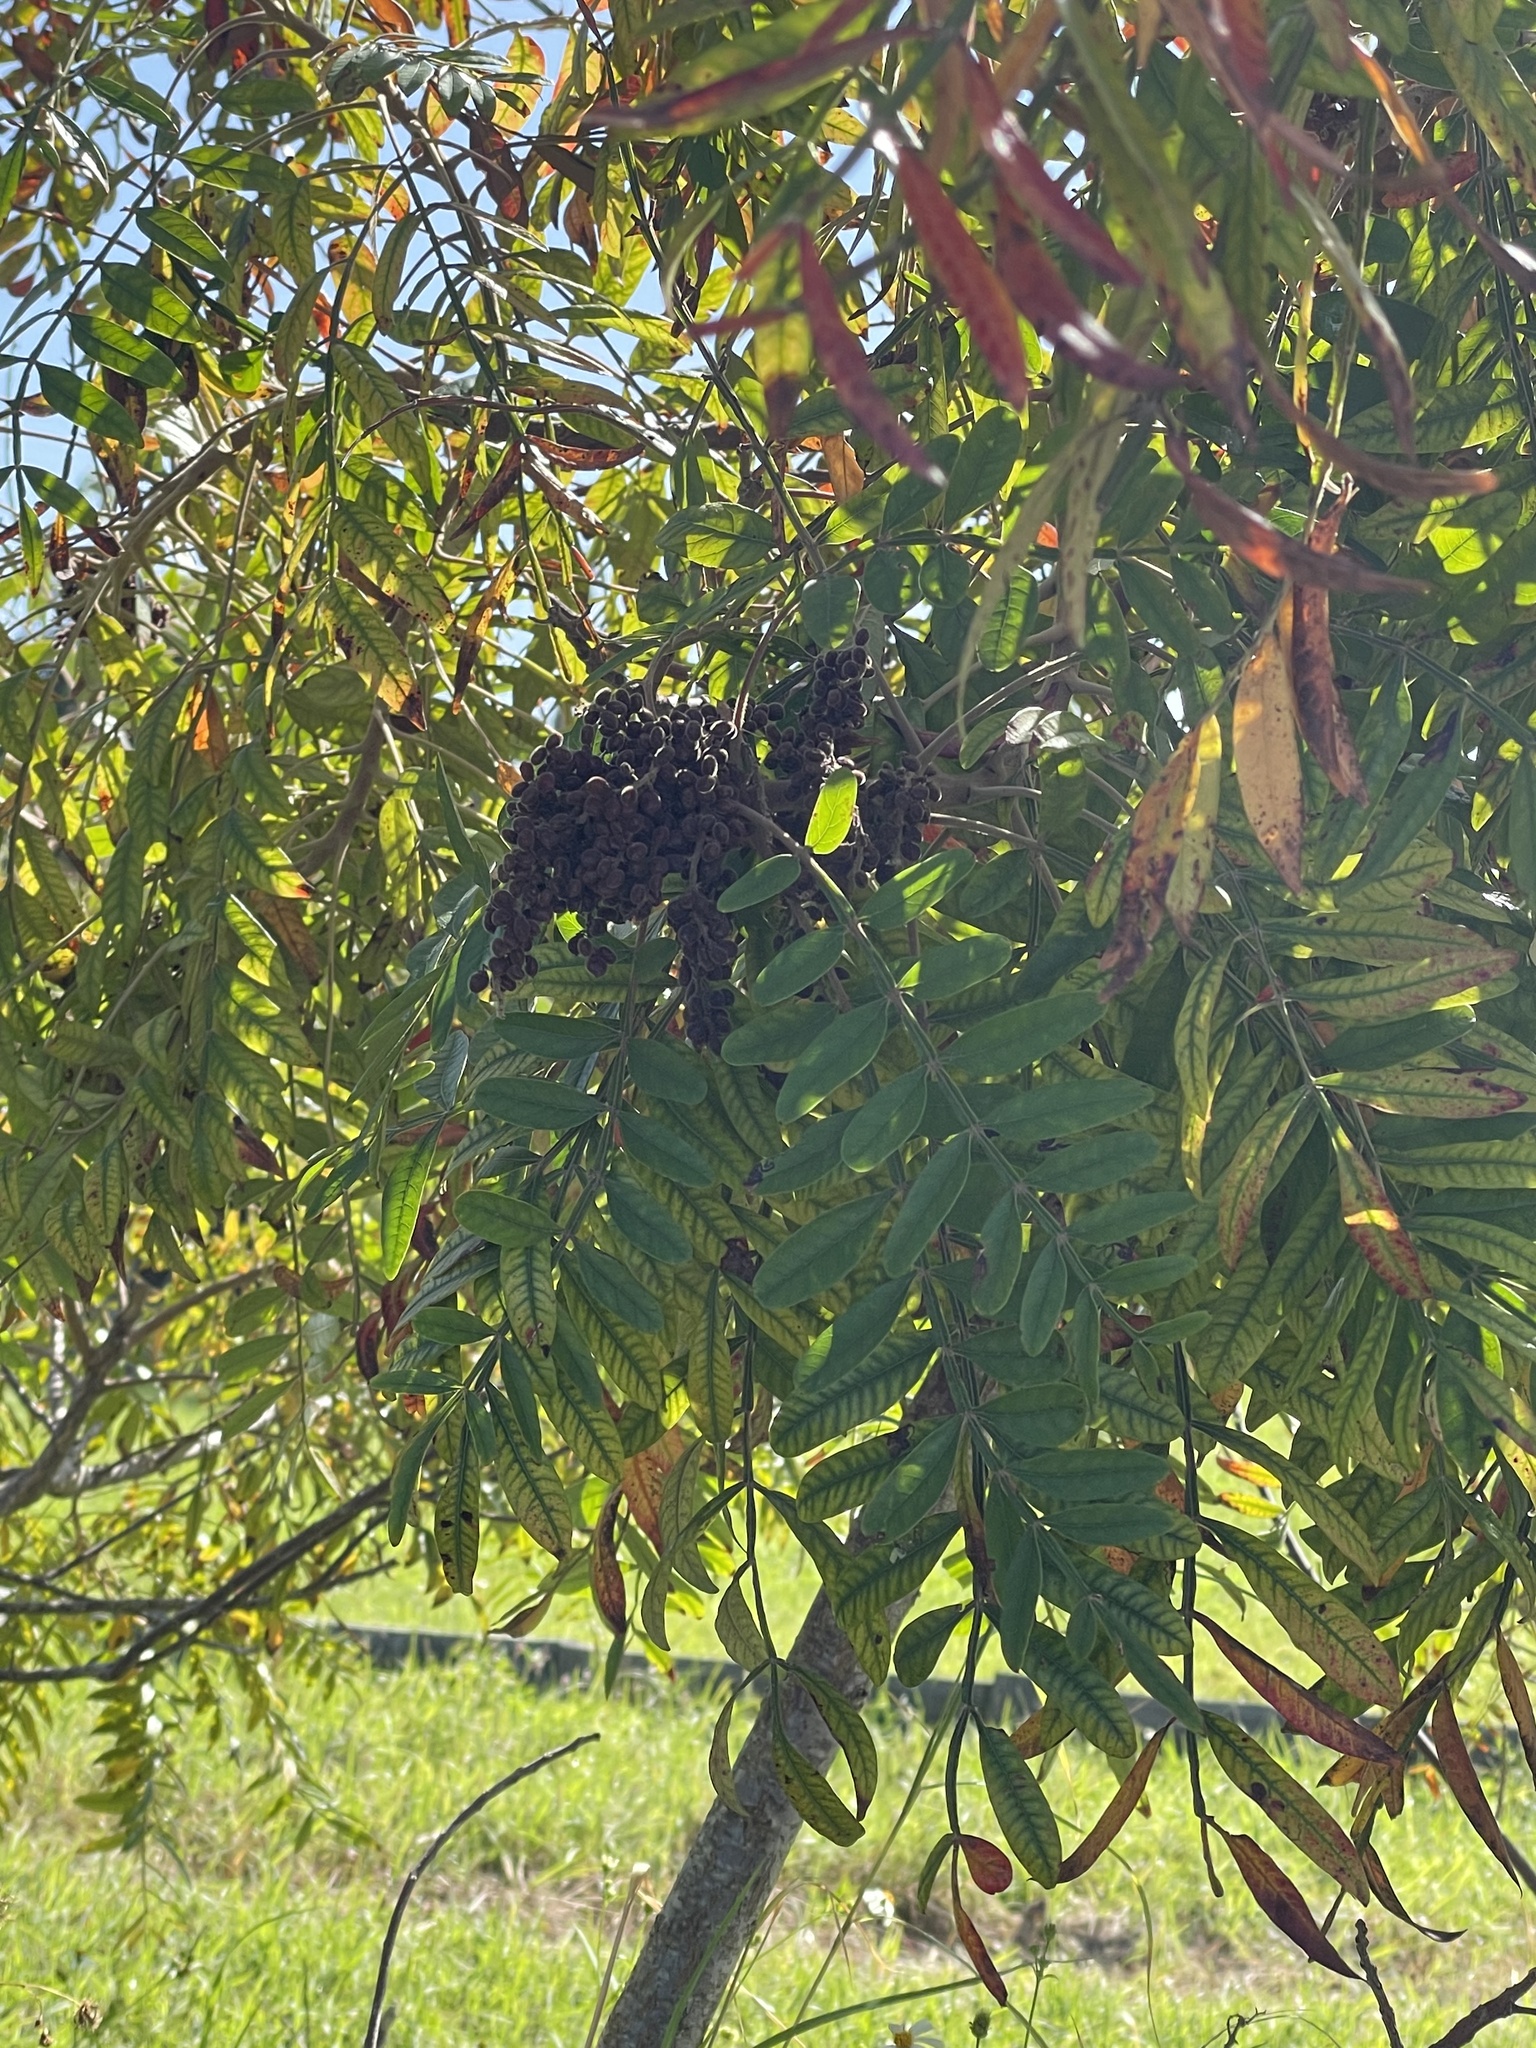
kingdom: Plantae
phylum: Tracheophyta
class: Magnoliopsida
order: Sapindales
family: Anacardiaceae
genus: Rhus
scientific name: Rhus copallina
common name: Shining sumac
